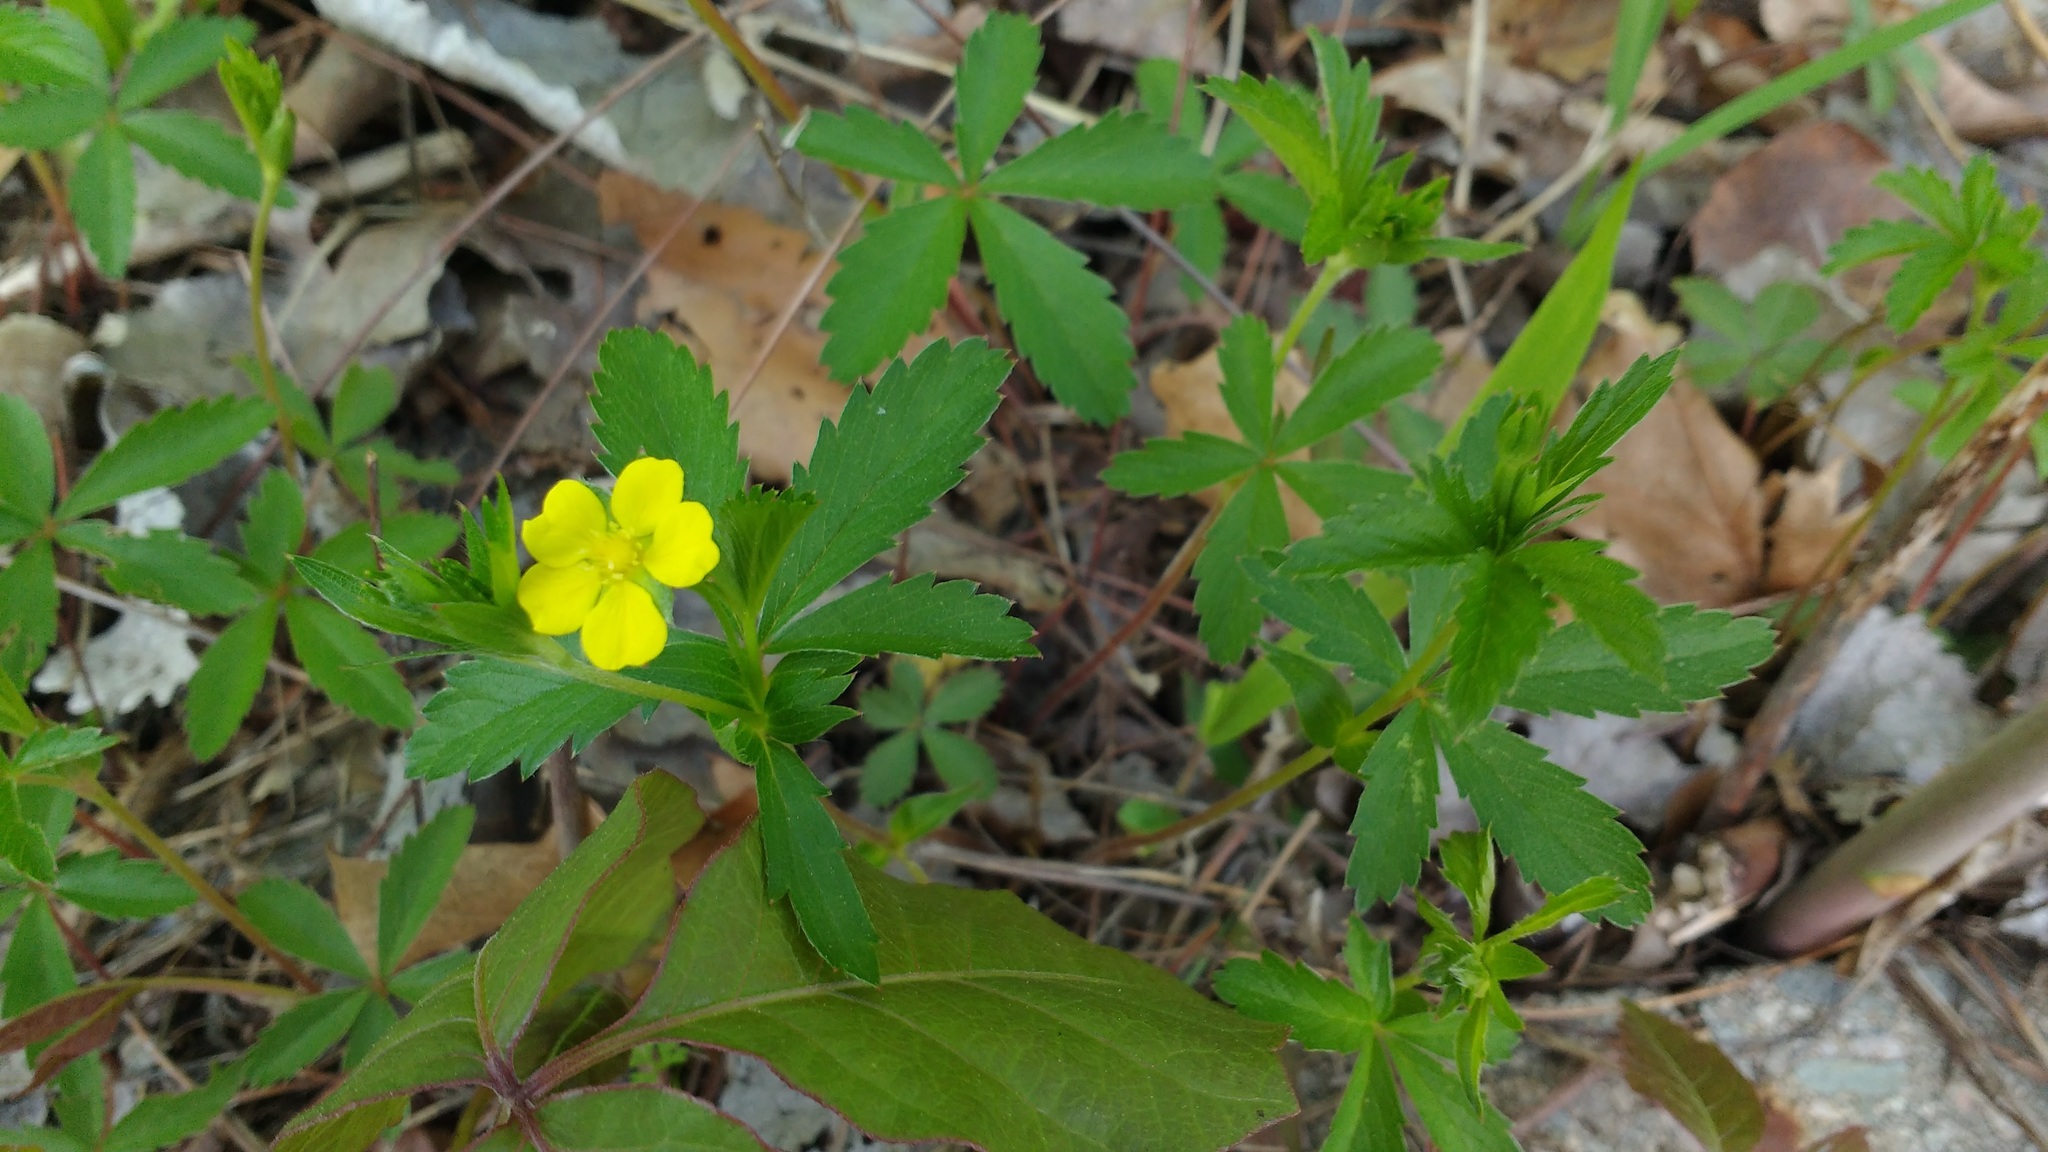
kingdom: Plantae
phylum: Tracheophyta
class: Magnoliopsida
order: Rosales
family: Rosaceae
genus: Potentilla
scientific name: Potentilla simplex
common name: Old field cinquefoil
